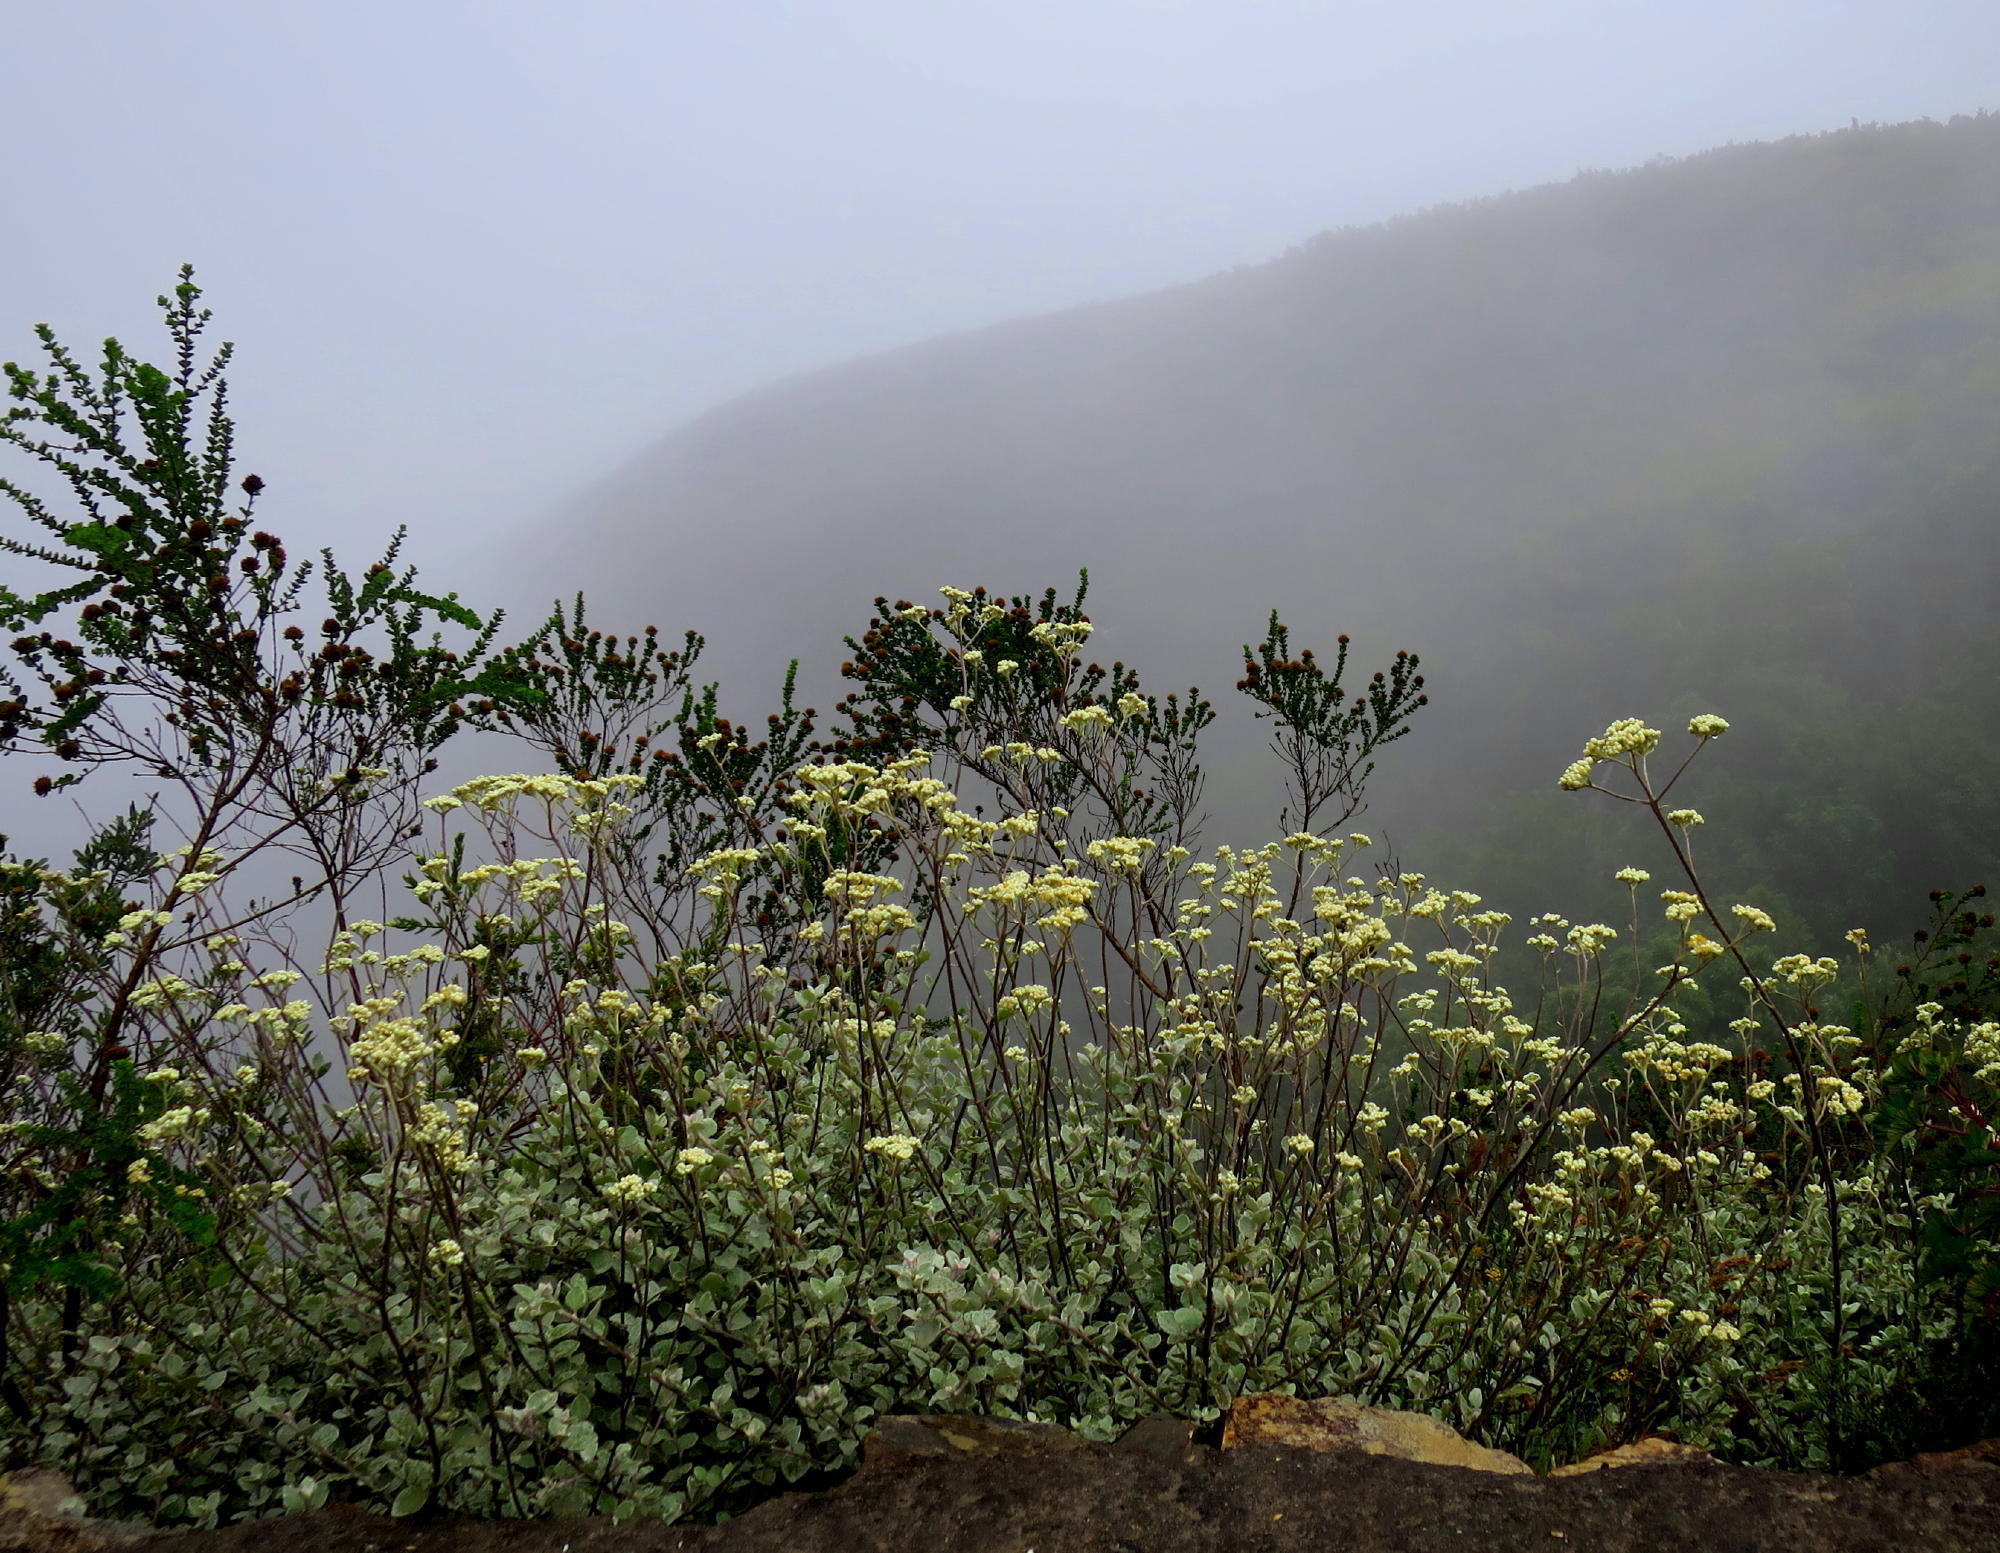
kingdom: Plantae
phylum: Tracheophyta
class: Magnoliopsida
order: Asterales
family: Asteraceae
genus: Helichrysum
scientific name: Helichrysum petiolare
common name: Licorice-plant
